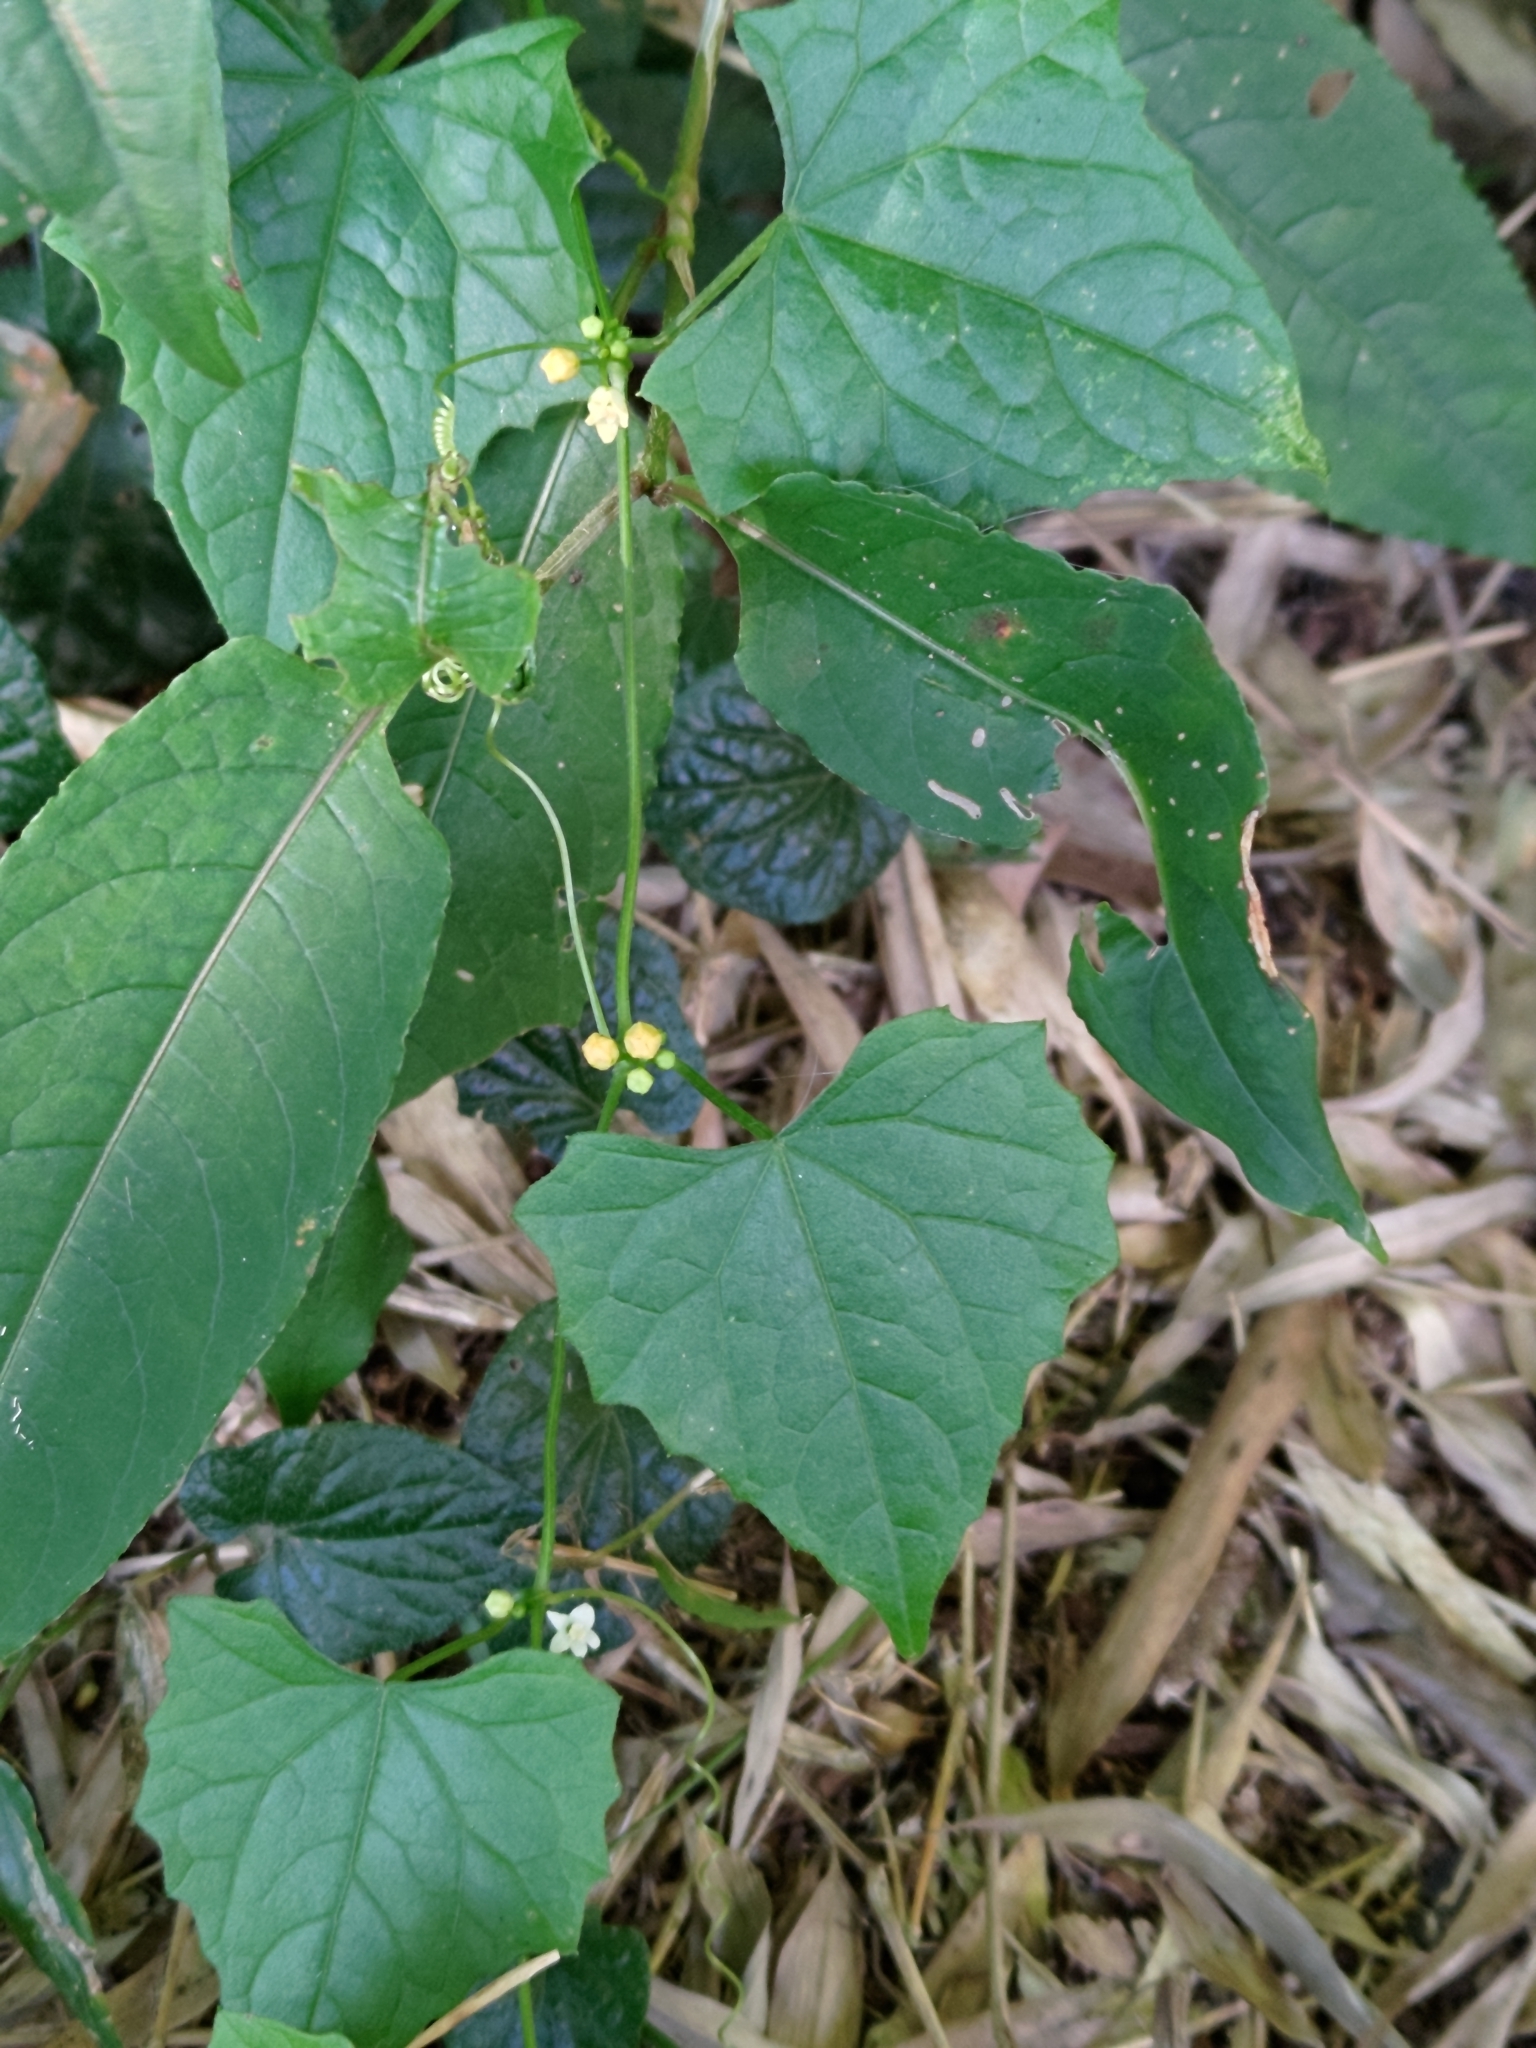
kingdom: Plantae
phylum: Tracheophyta
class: Magnoliopsida
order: Cucurbitales
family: Cucurbitaceae
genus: Zehneria
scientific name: Zehneria guamensis
